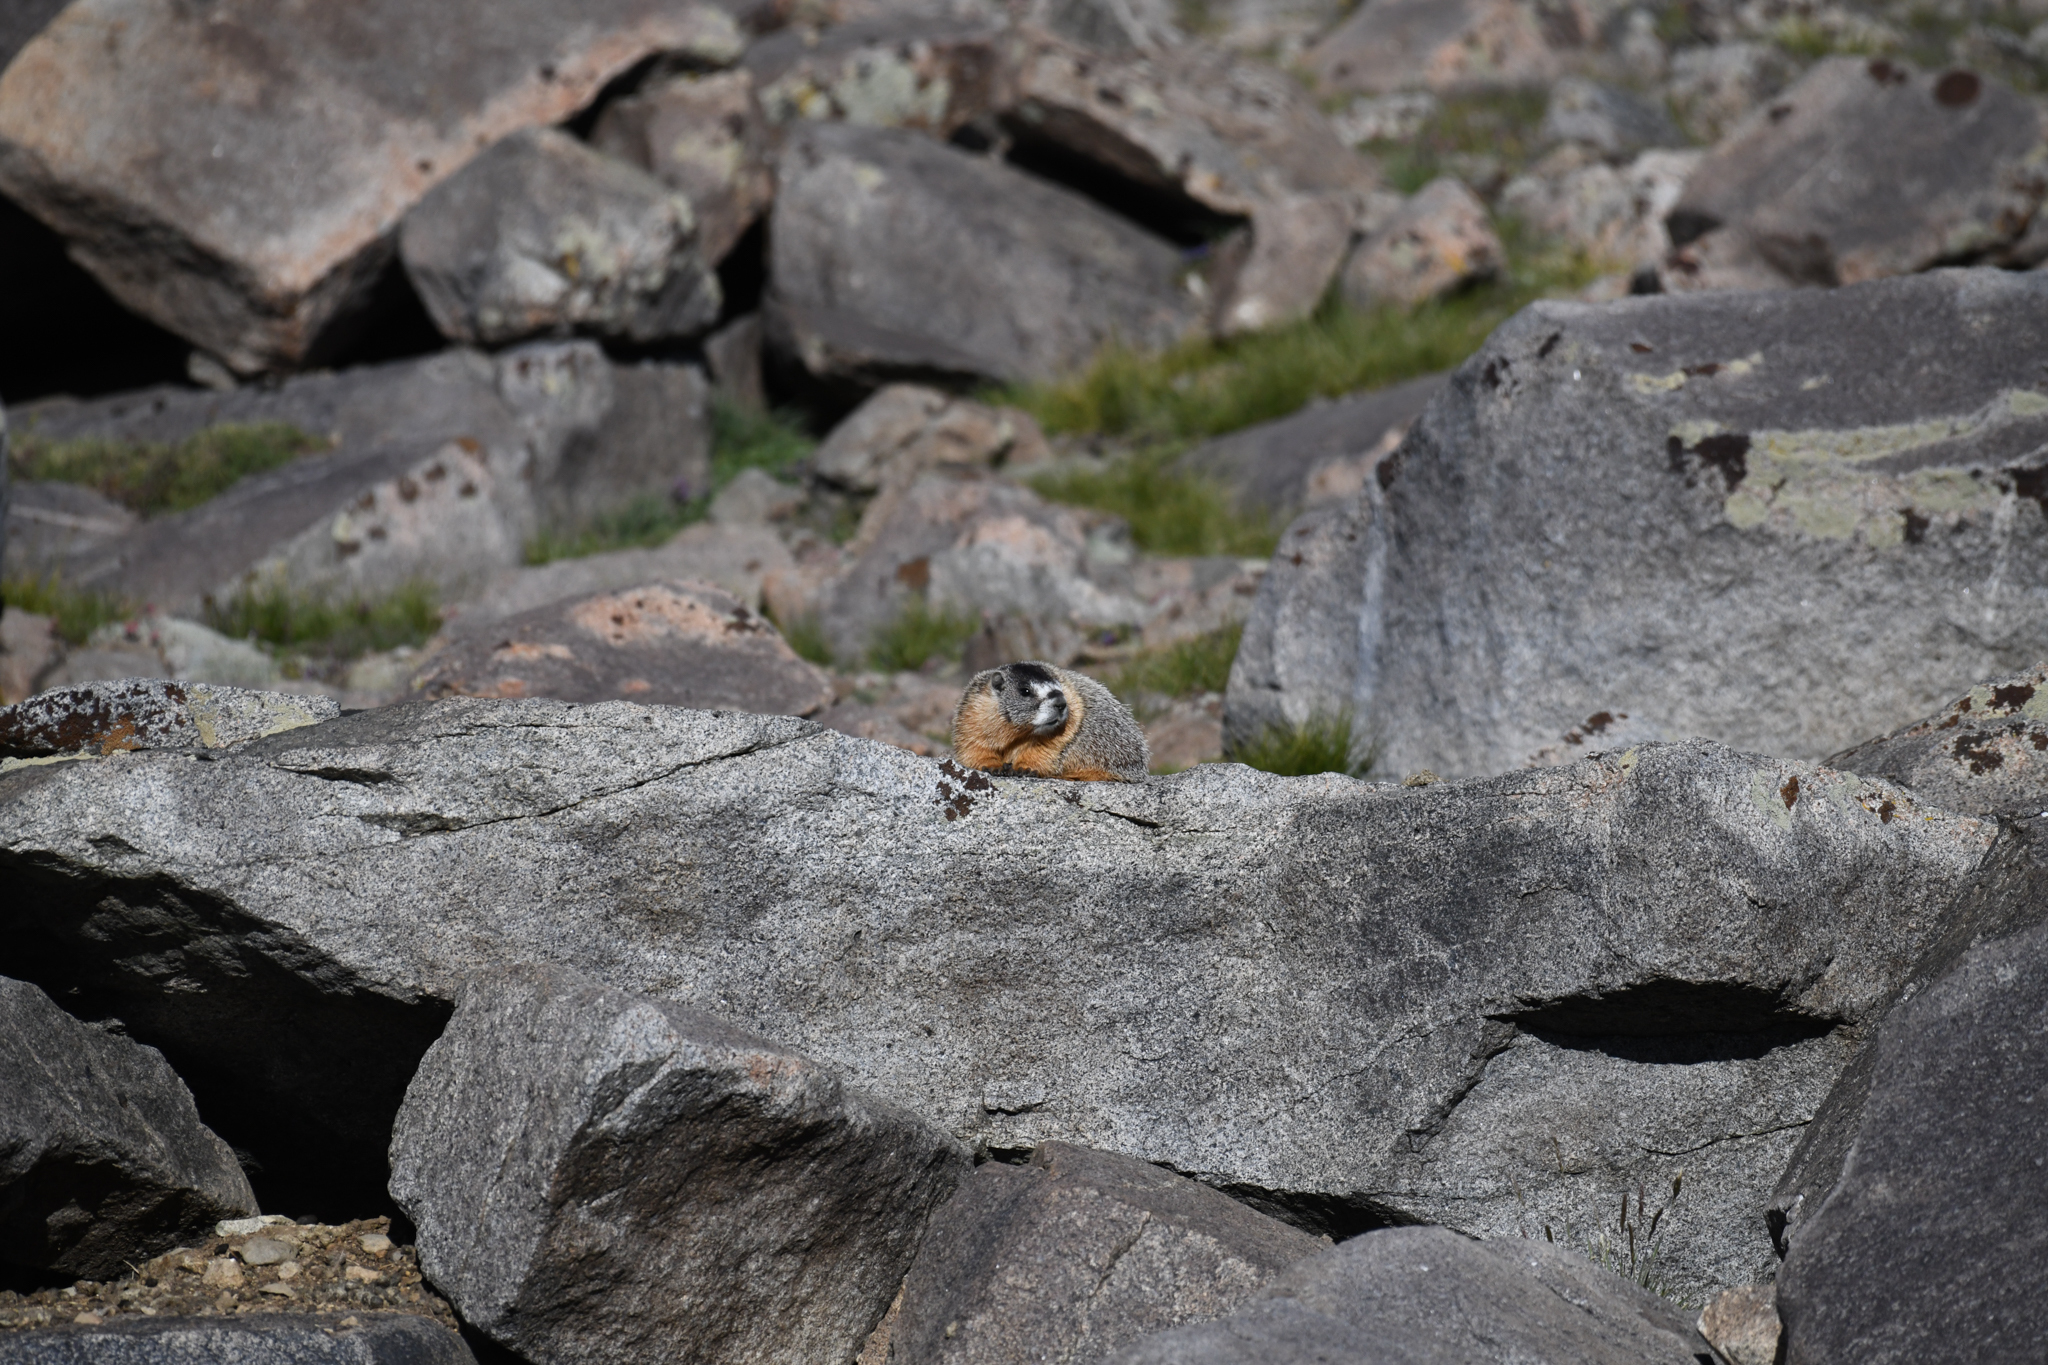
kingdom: Animalia
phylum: Chordata
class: Mammalia
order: Rodentia
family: Sciuridae
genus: Marmota
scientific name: Marmota flaviventris
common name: Yellow-bellied marmot
